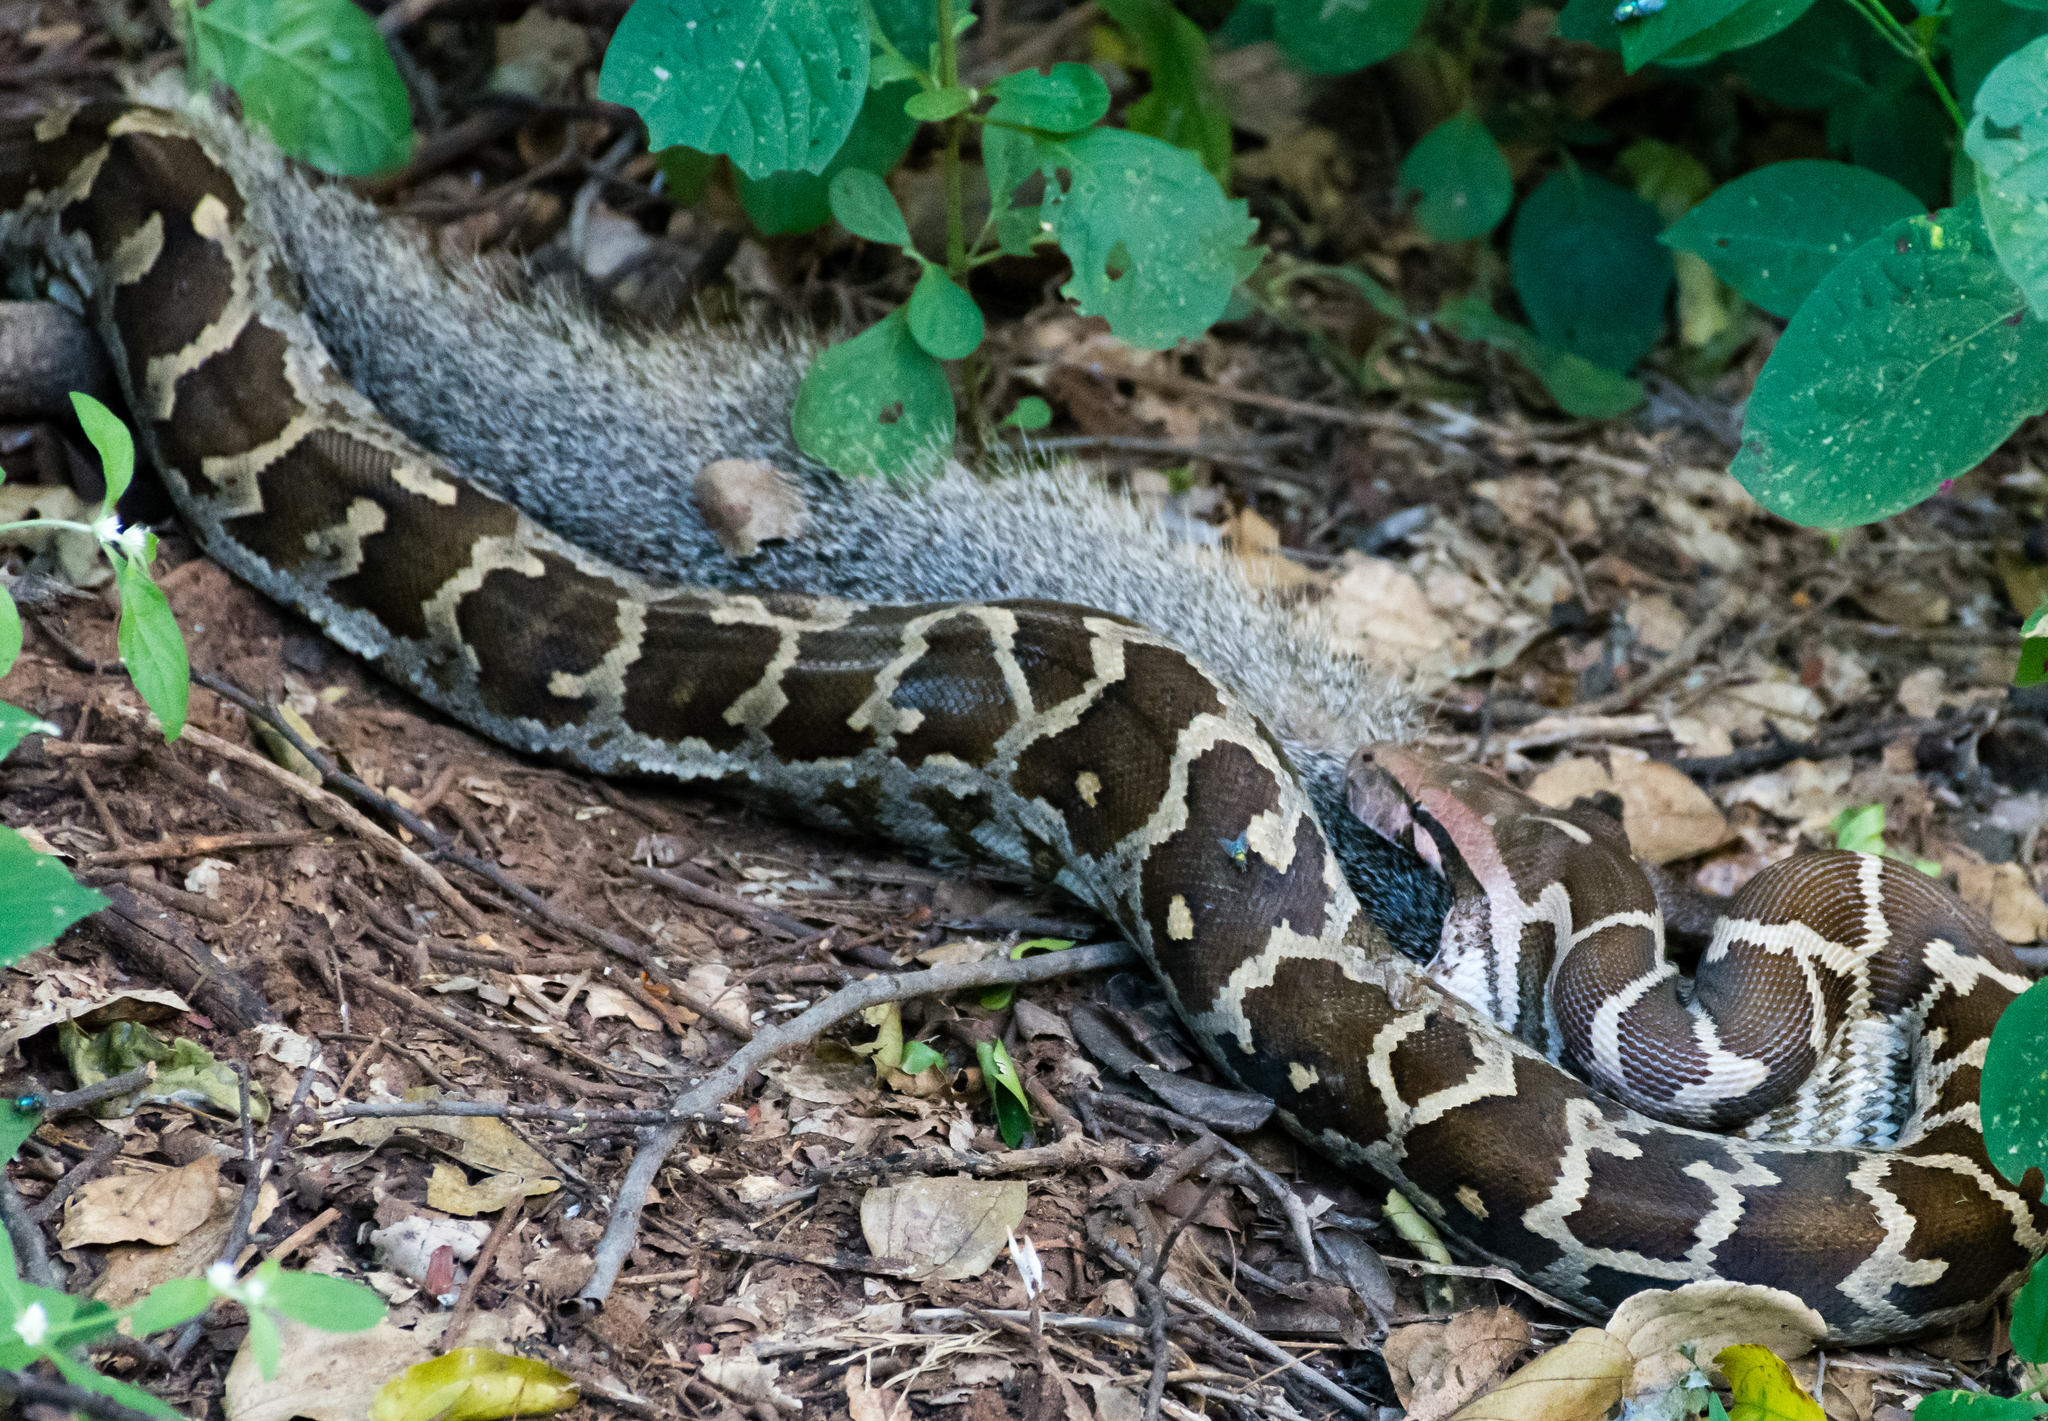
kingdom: Animalia
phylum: Chordata
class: Squamata
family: Pythonidae
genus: Python
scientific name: Python molurus
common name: Indian rock python
